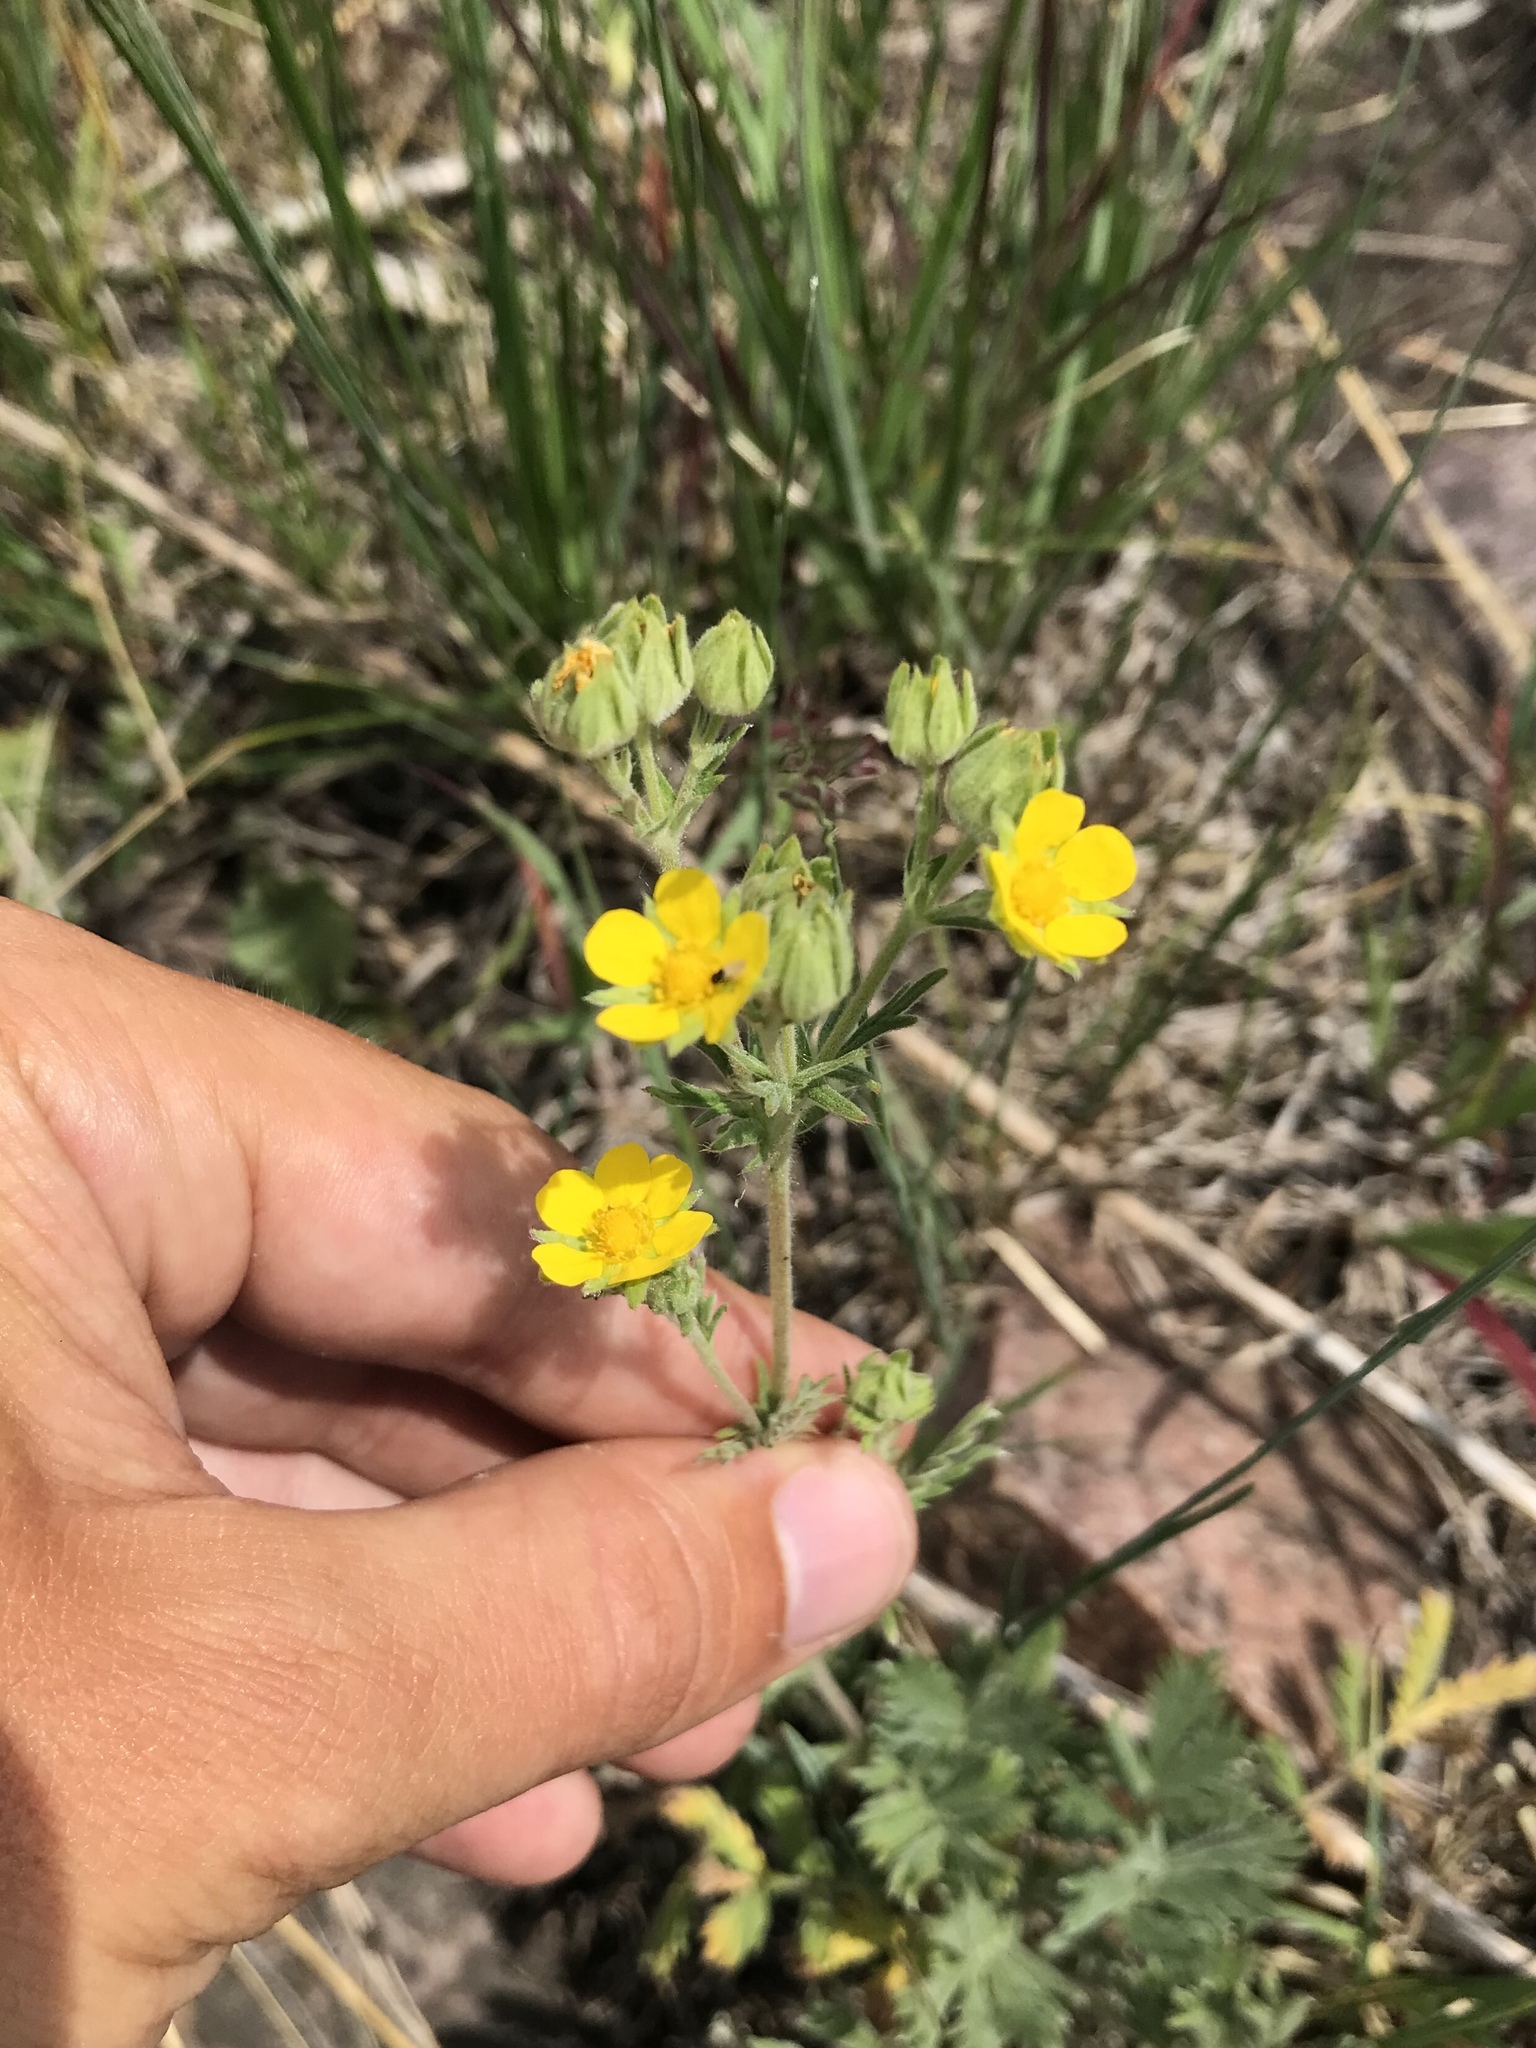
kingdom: Plantae
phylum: Tracheophyta
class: Magnoliopsida
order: Rosales
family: Rosaceae
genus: Potentilla
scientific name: Potentilla pensylvanica
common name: Pennsylvania cinquefoil
